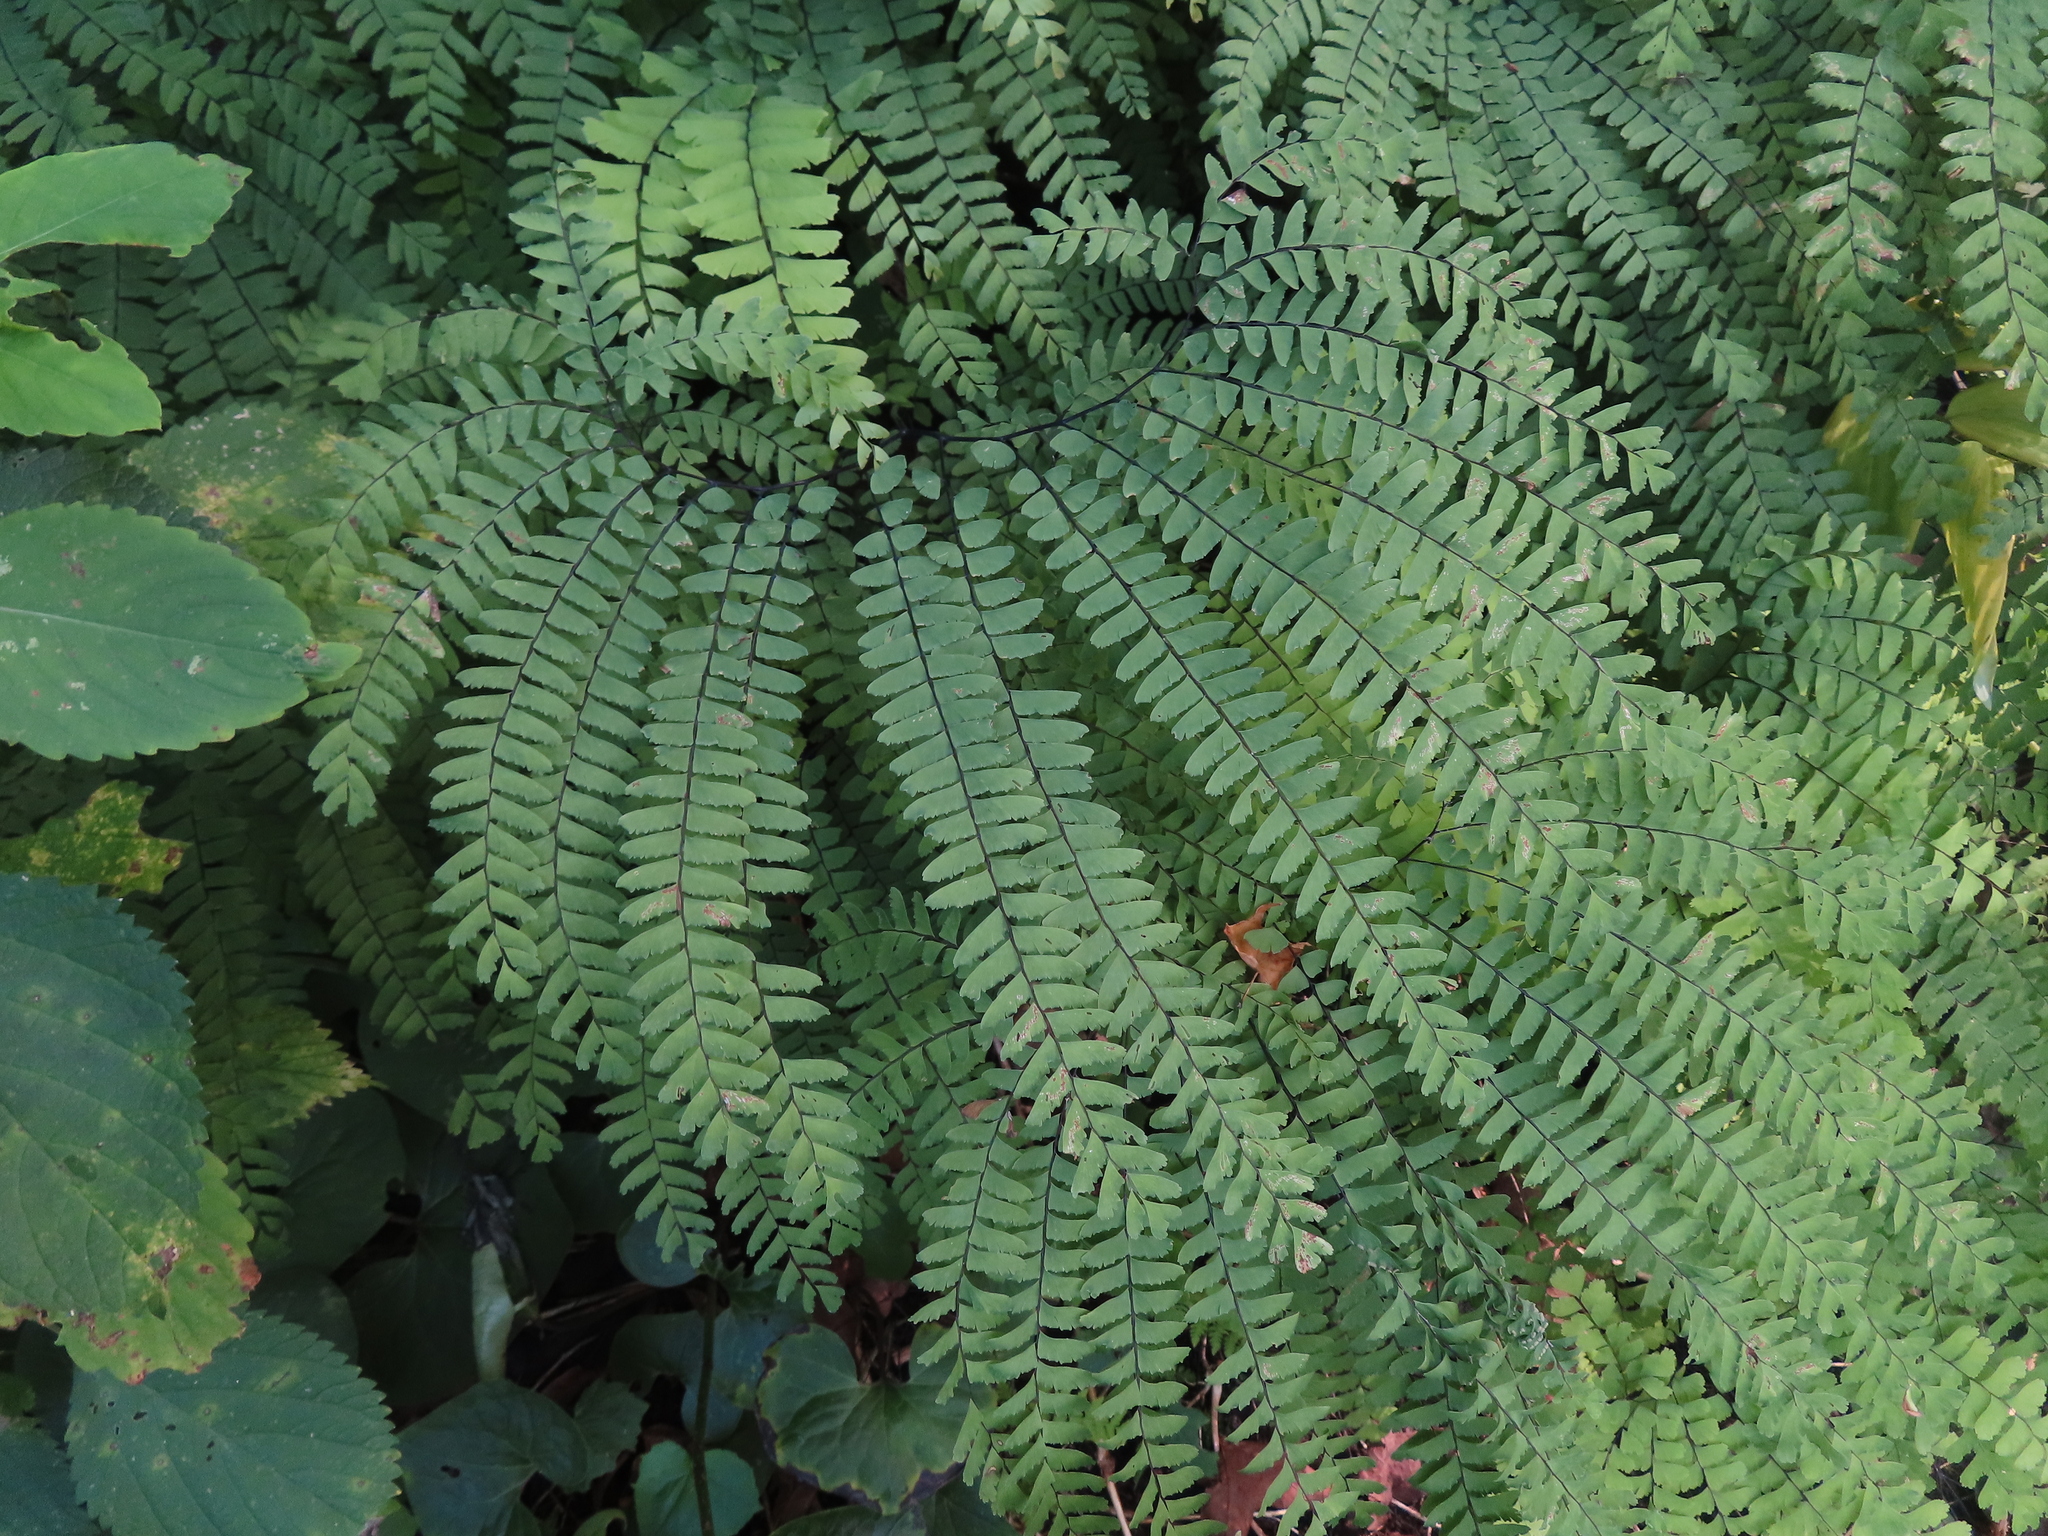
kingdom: Plantae
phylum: Tracheophyta
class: Polypodiopsida
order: Polypodiales
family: Pteridaceae
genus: Adiantum
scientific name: Adiantum pedatum
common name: Five-finger fern
